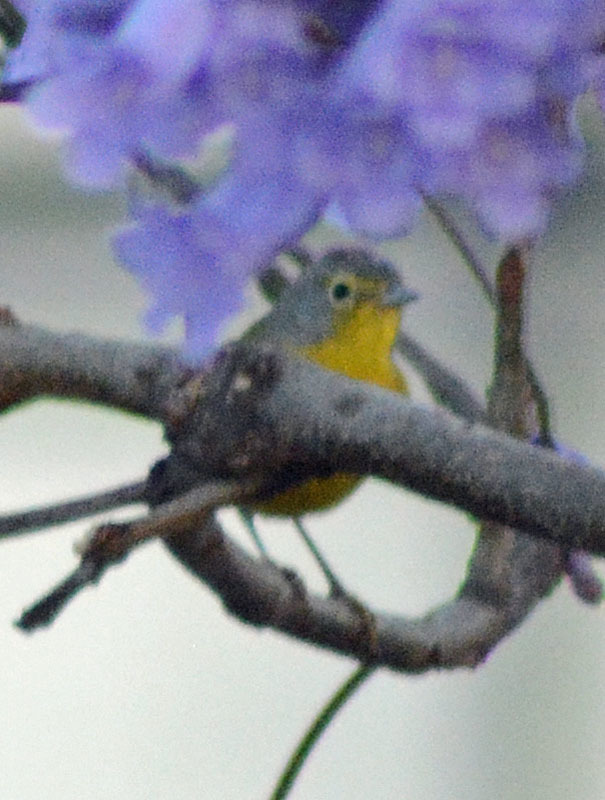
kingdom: Animalia
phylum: Chordata
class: Aves
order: Passeriformes
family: Parulidae
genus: Leiothlypis
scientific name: Leiothlypis ruficapilla
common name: Nashville warbler
